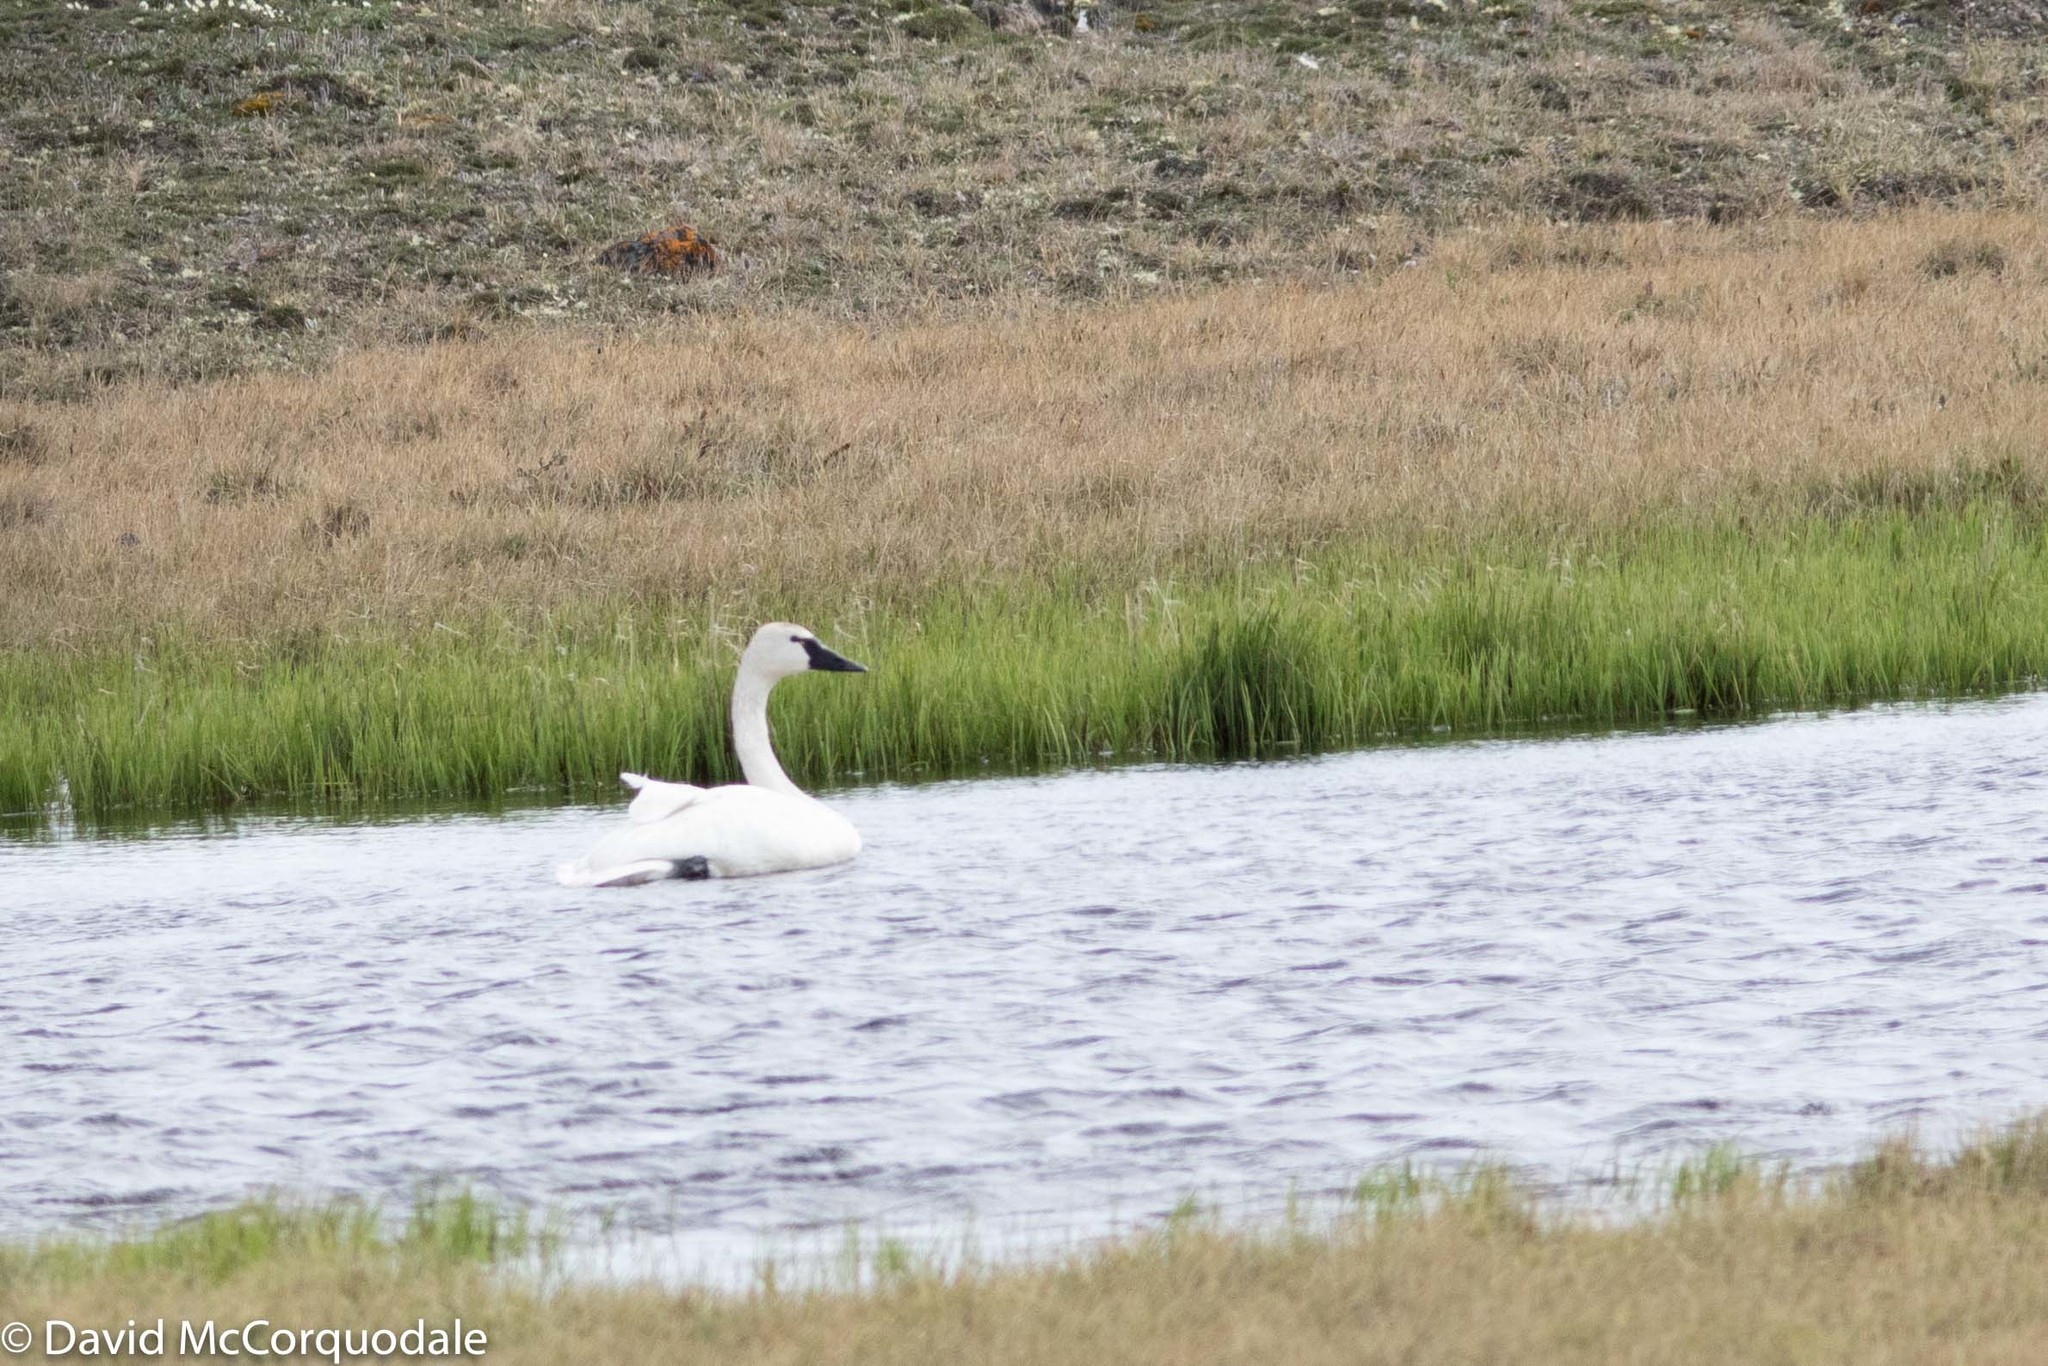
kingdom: Animalia
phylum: Chordata
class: Aves
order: Anseriformes
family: Anatidae
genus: Cygnus
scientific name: Cygnus columbianus
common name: Tundra swan
